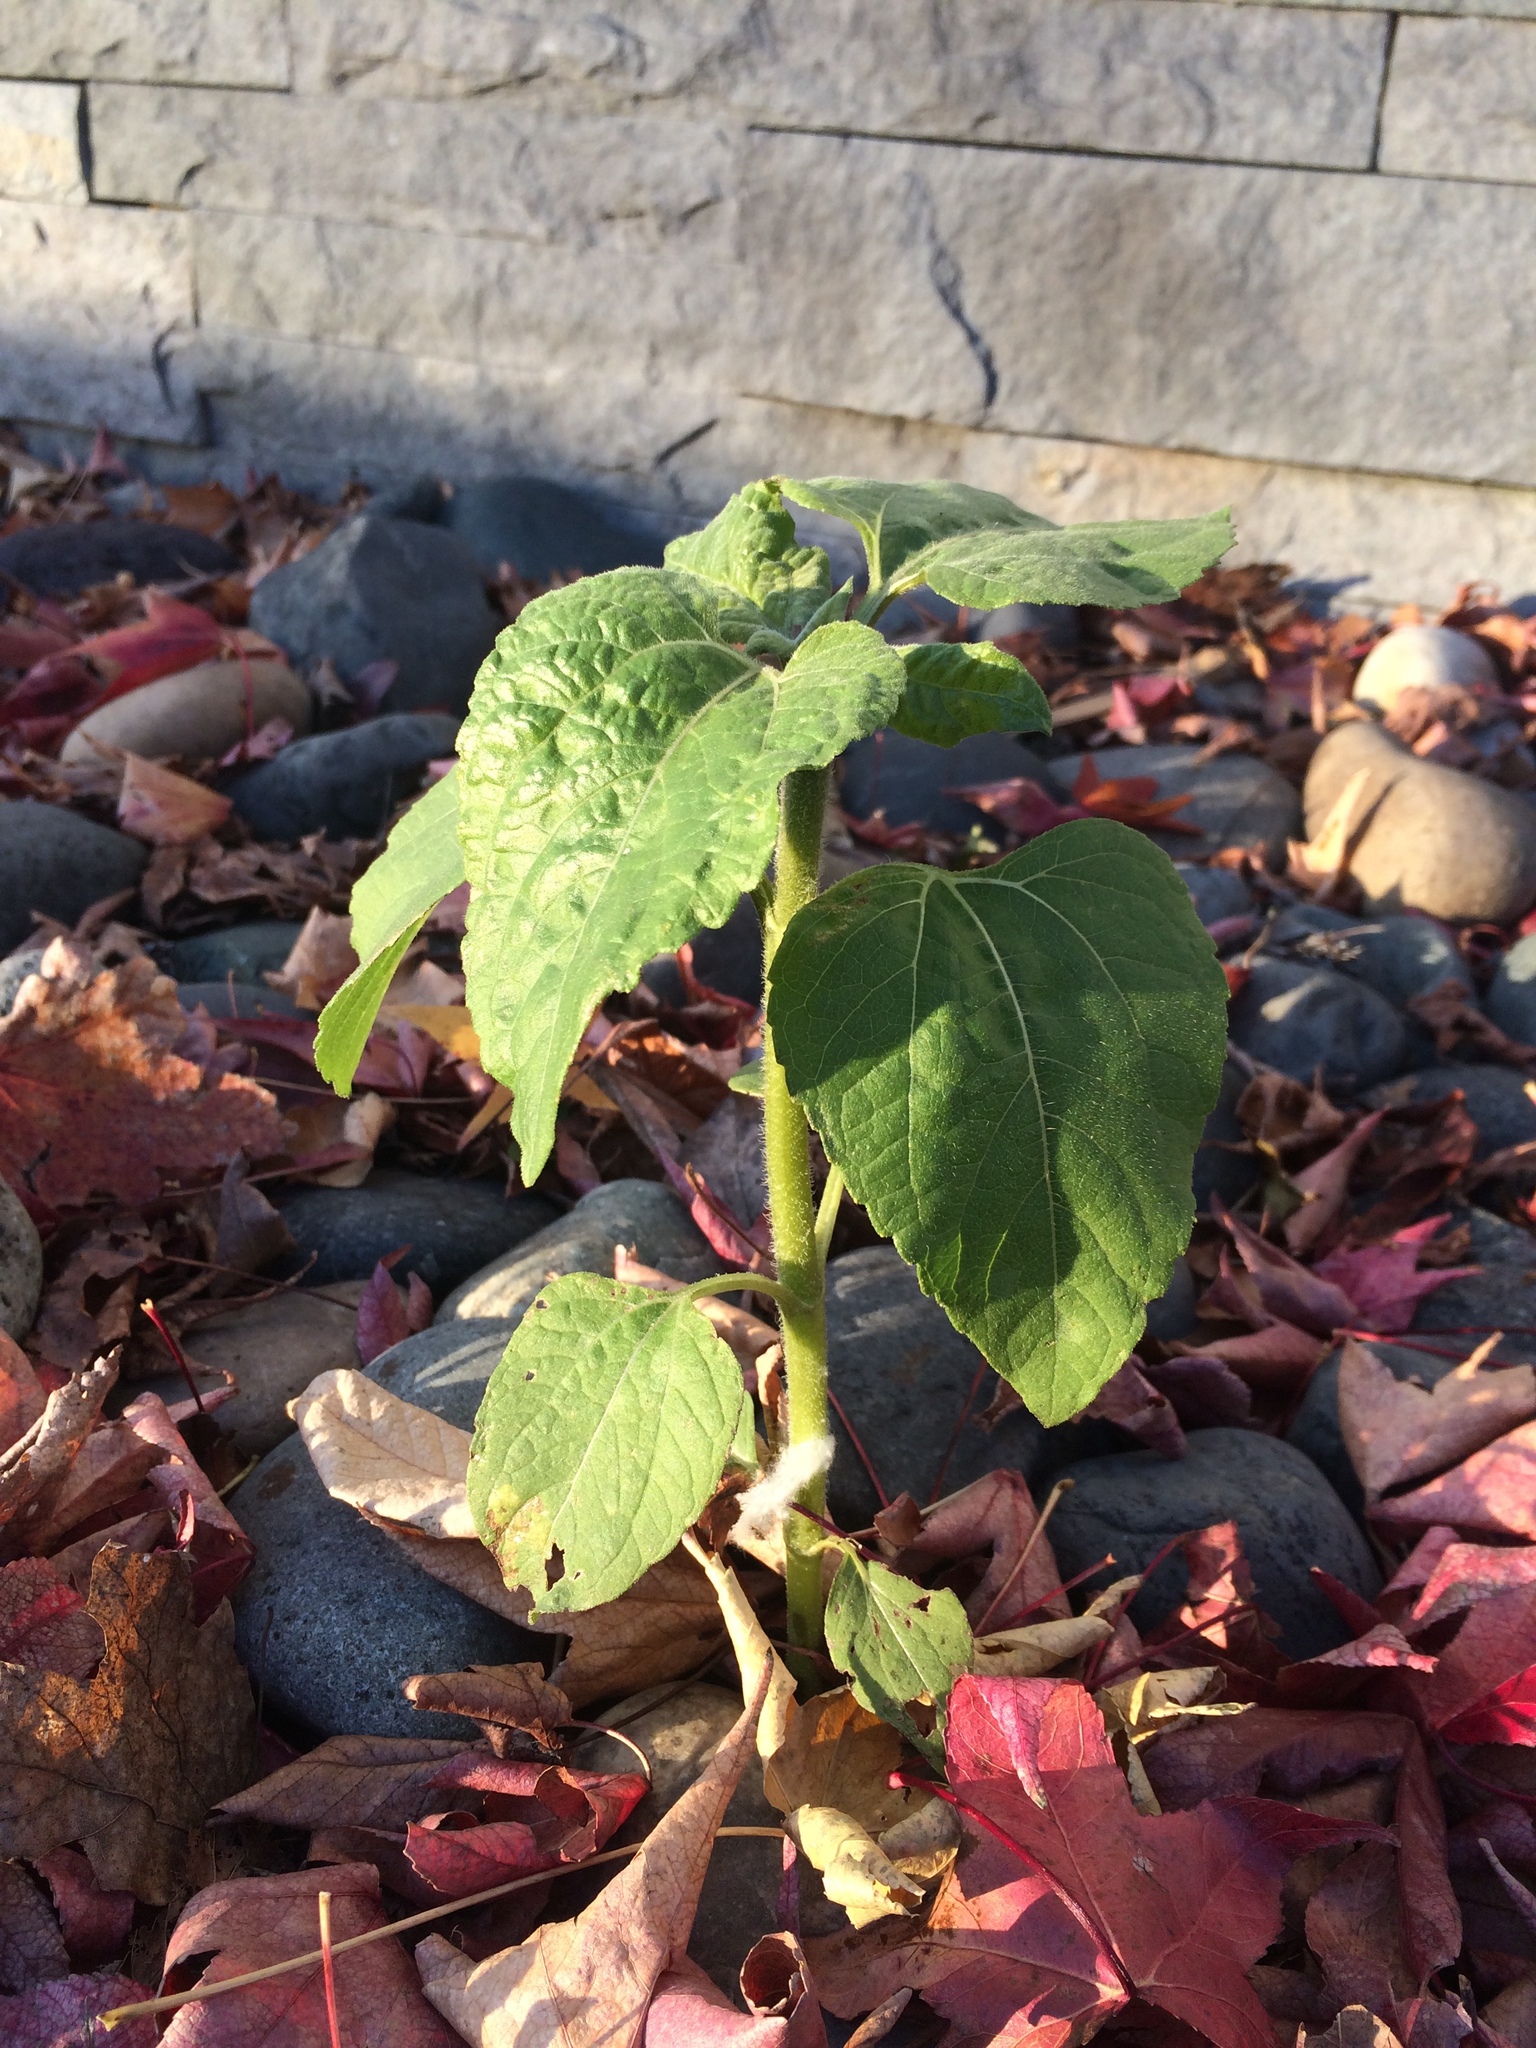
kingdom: Plantae
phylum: Tracheophyta
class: Magnoliopsida
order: Asterales
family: Asteraceae
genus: Helianthus
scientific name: Helianthus annuus
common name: Sunflower
